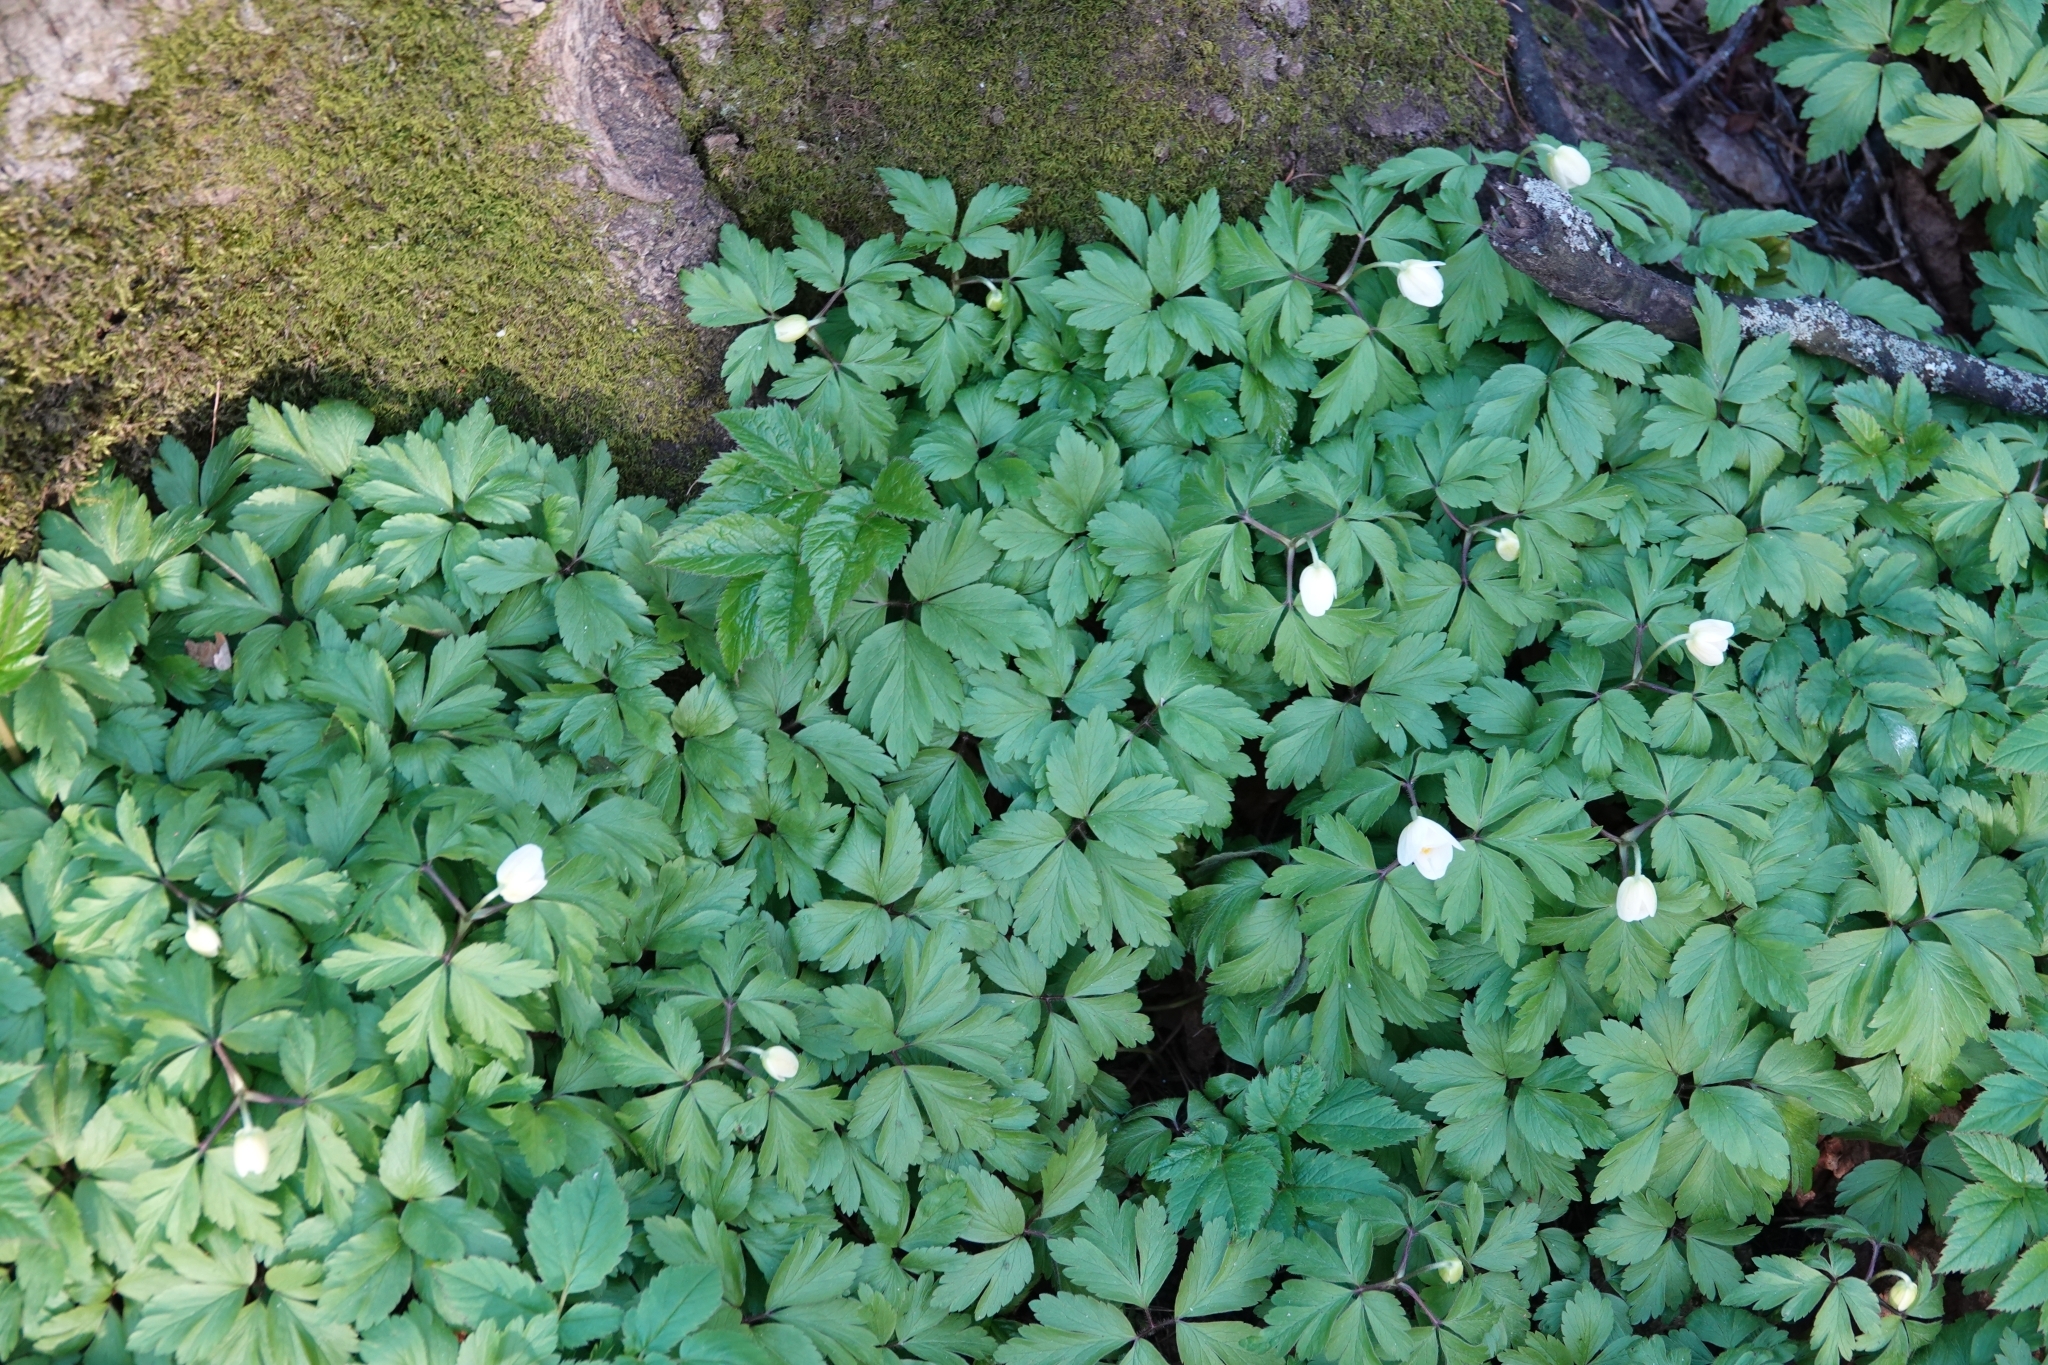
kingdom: Plantae
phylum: Tracheophyta
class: Magnoliopsida
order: Ranunculales
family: Ranunculaceae
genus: Anemone
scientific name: Anemone nemorosa
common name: Wood anemone
